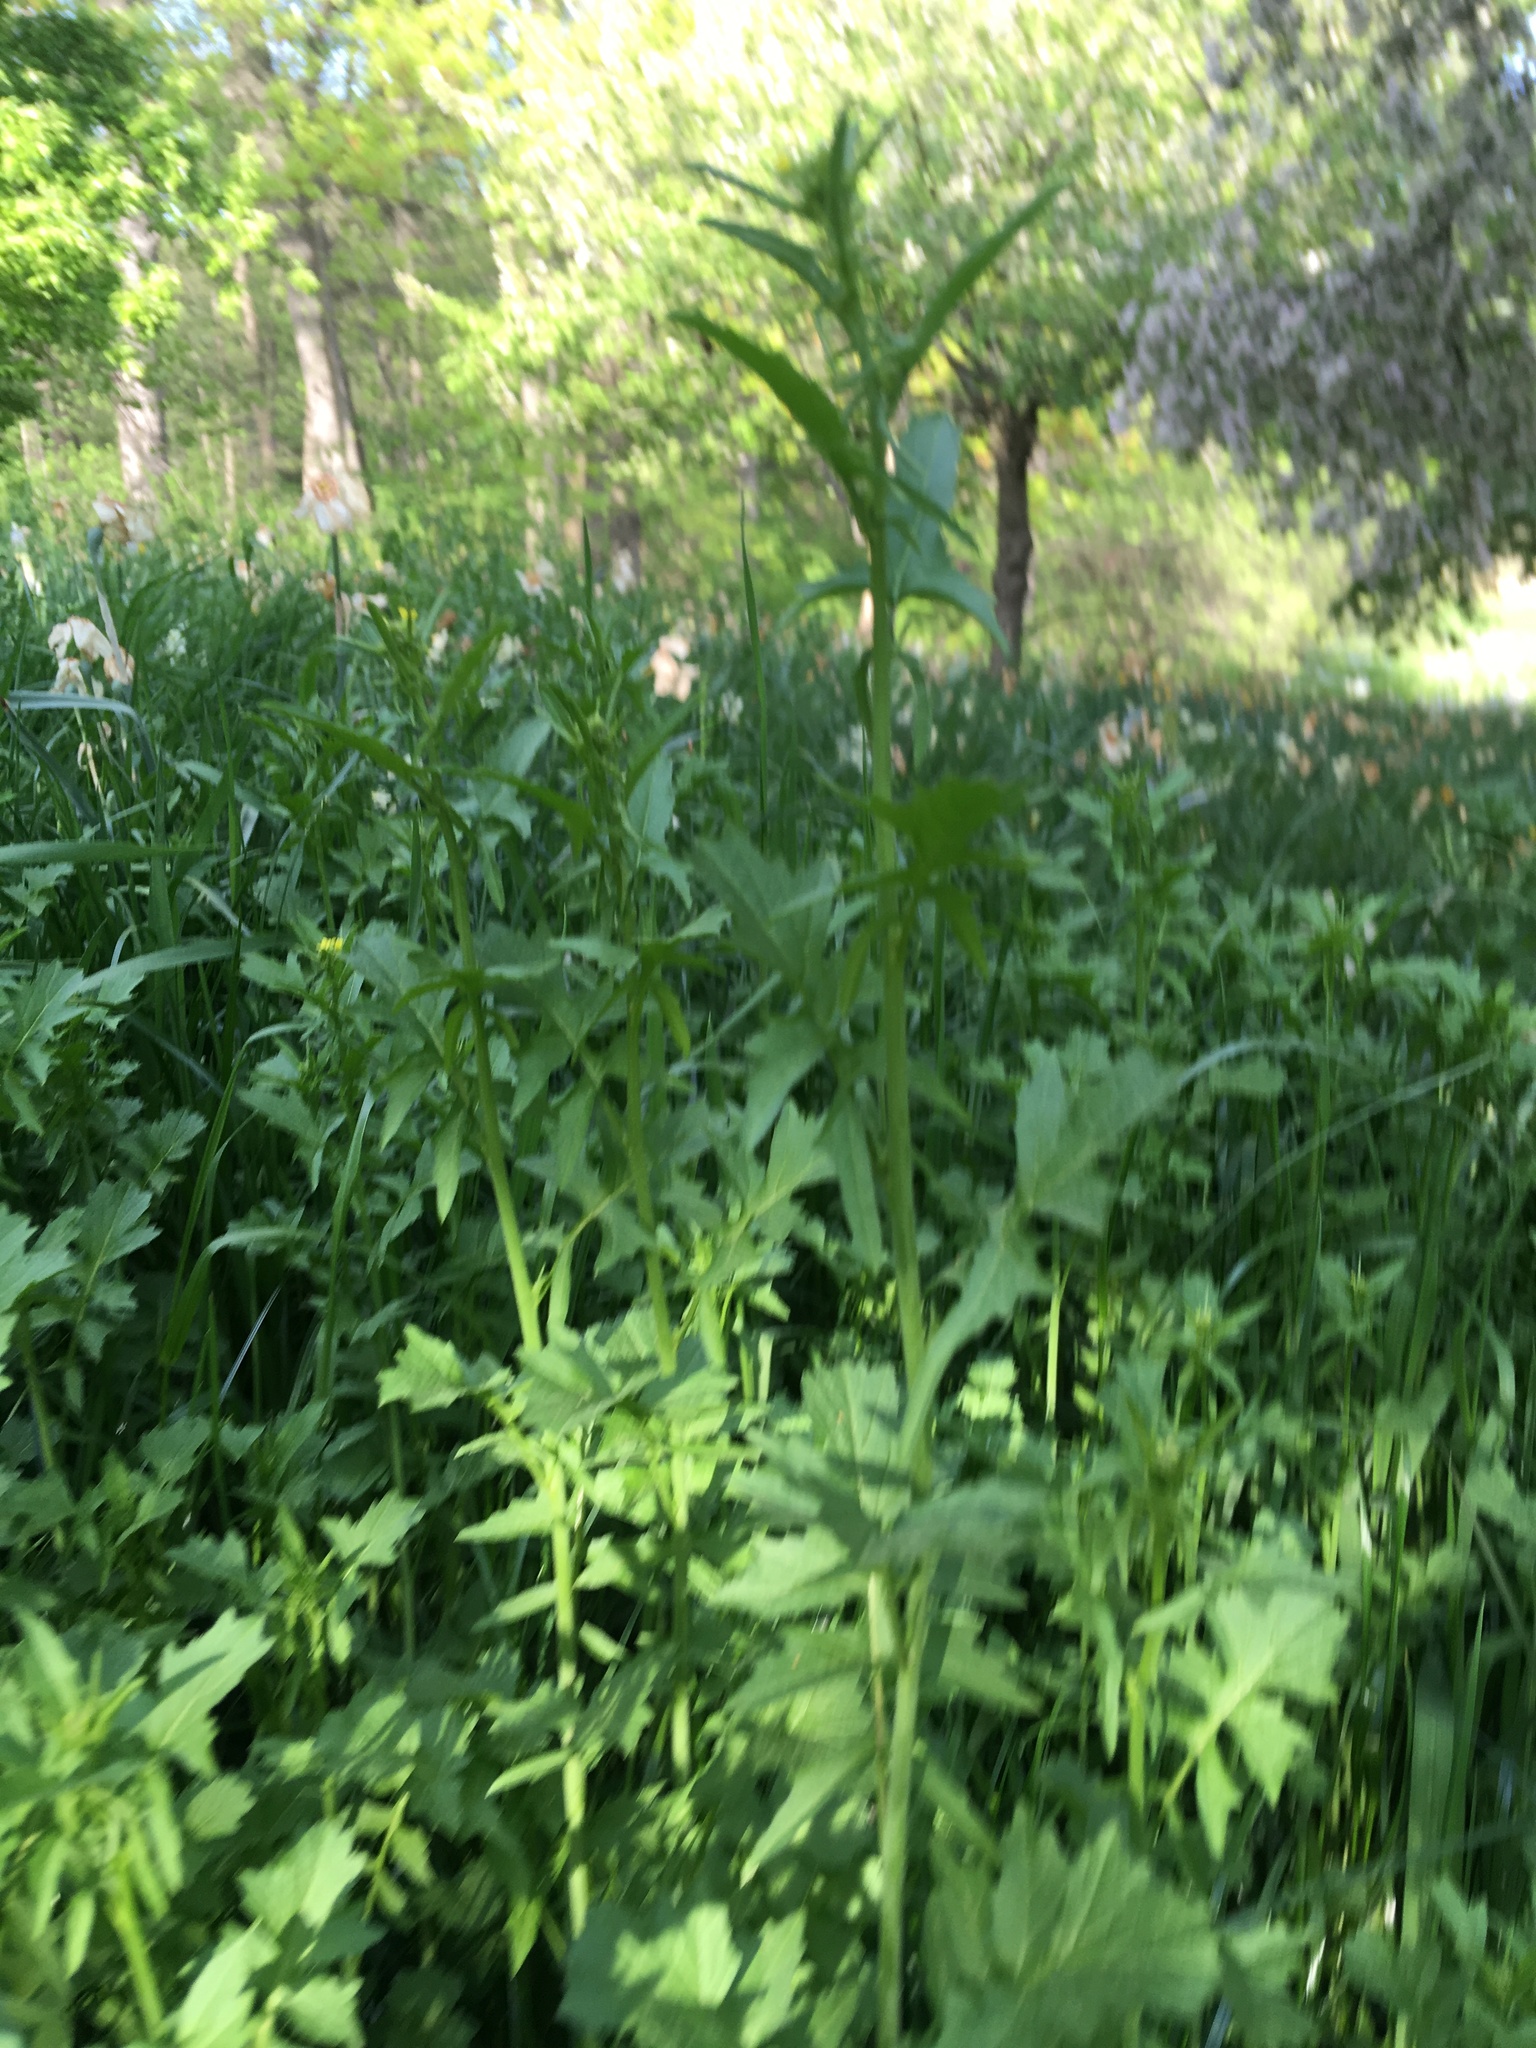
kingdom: Plantae
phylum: Tracheophyta
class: Magnoliopsida
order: Brassicales
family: Brassicaceae
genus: Sisymbrium
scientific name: Sisymbrium officinale
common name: Hedge mustard
